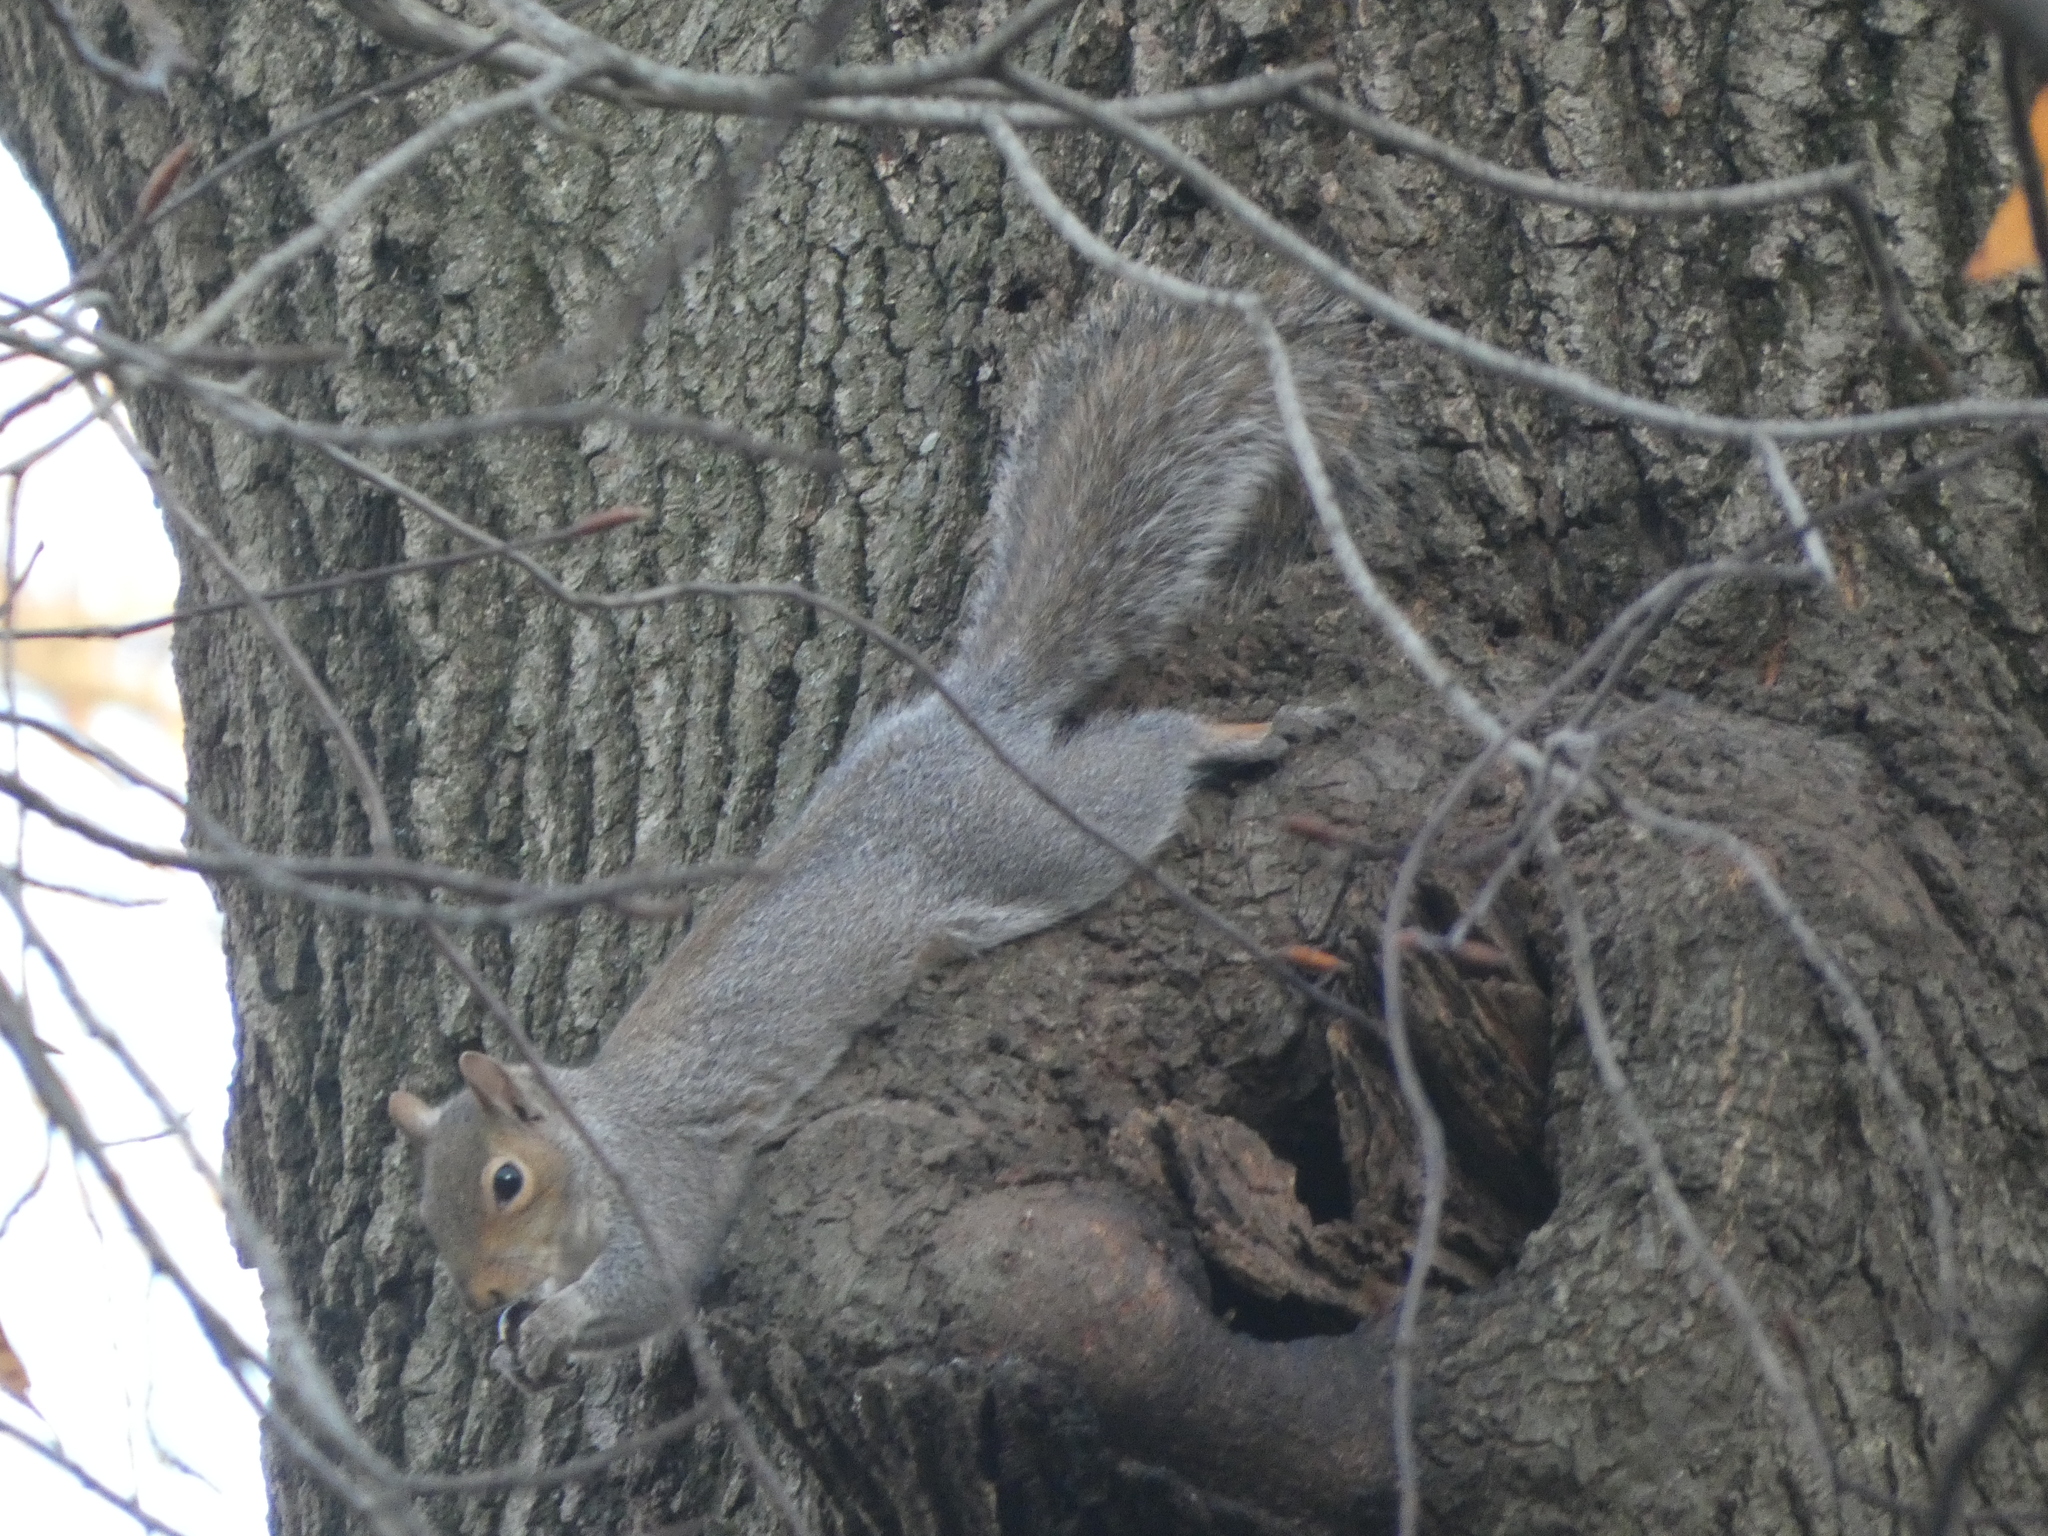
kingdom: Animalia
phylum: Chordata
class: Mammalia
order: Rodentia
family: Sciuridae
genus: Sciurus
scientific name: Sciurus carolinensis
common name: Eastern gray squirrel
